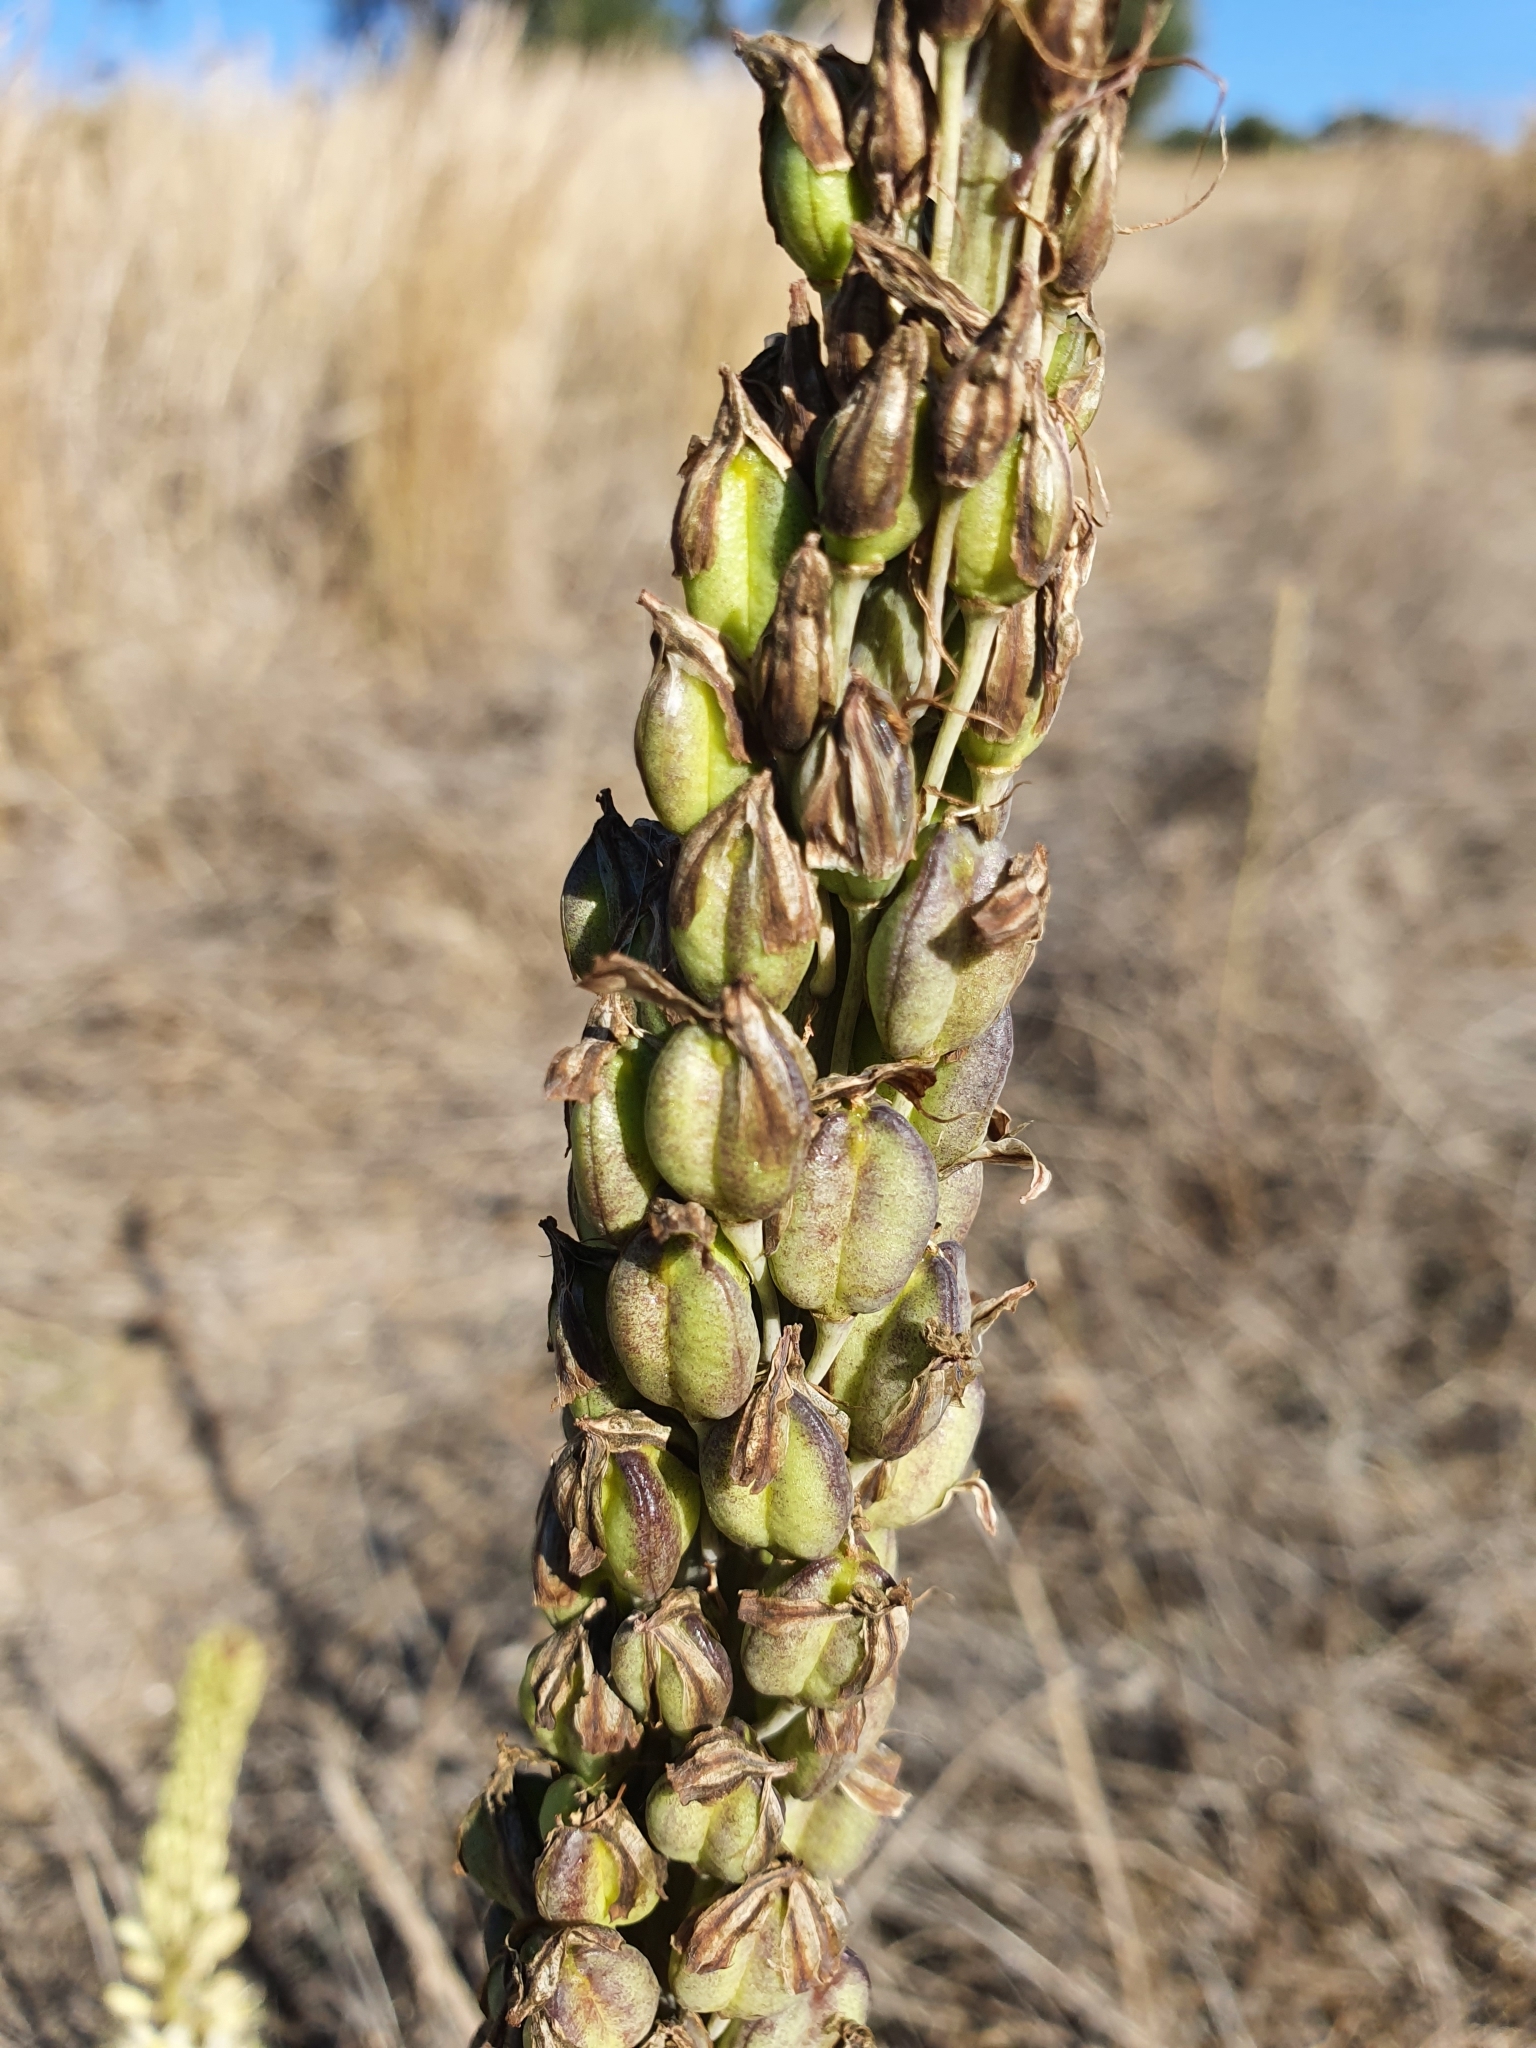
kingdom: Plantae
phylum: Tracheophyta
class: Liliopsida
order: Asparagales
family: Asparagaceae
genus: Drimia
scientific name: Drimia anthericoides
